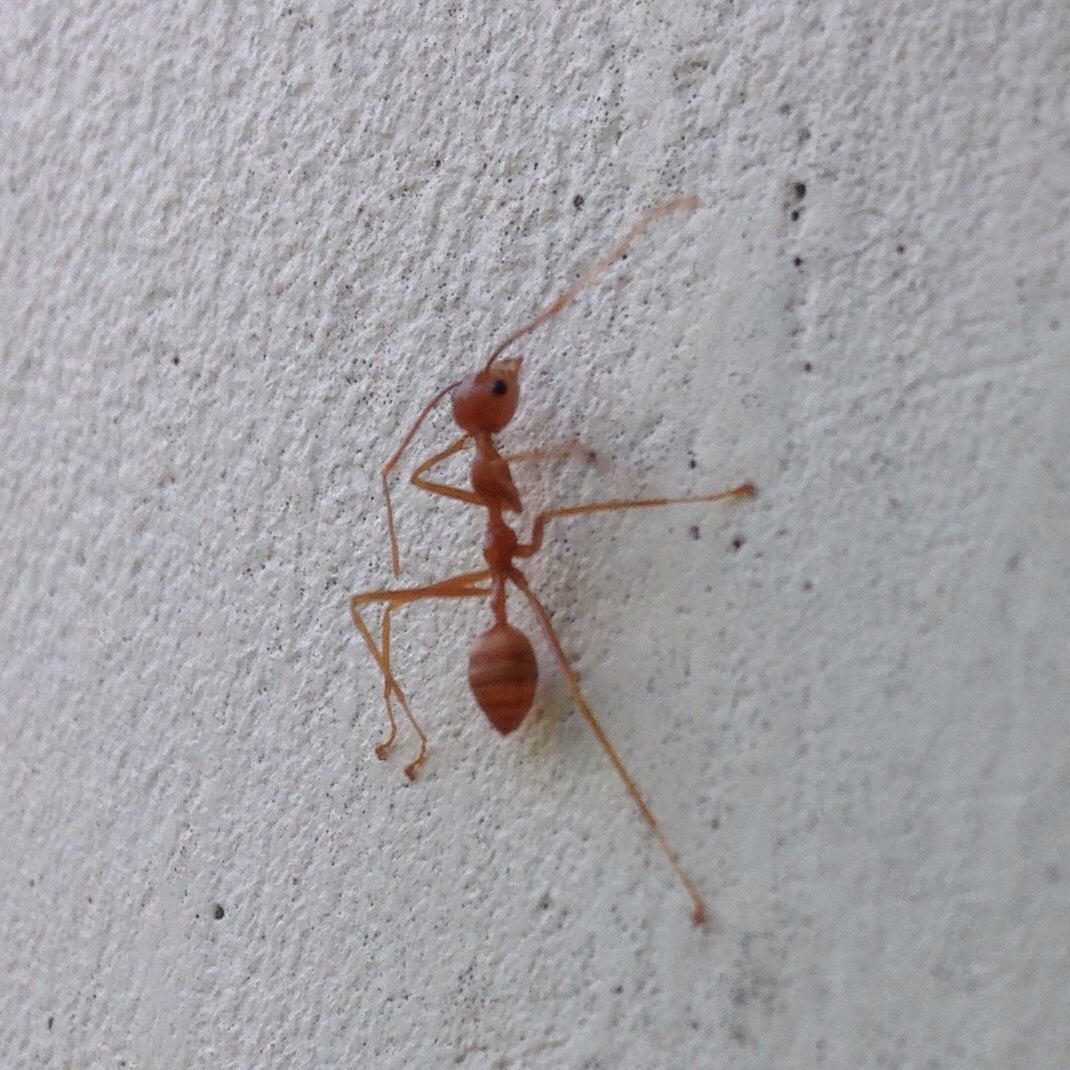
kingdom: Animalia
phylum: Arthropoda
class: Insecta
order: Hymenoptera
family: Formicidae
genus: Oecophylla
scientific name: Oecophylla smaragdina
